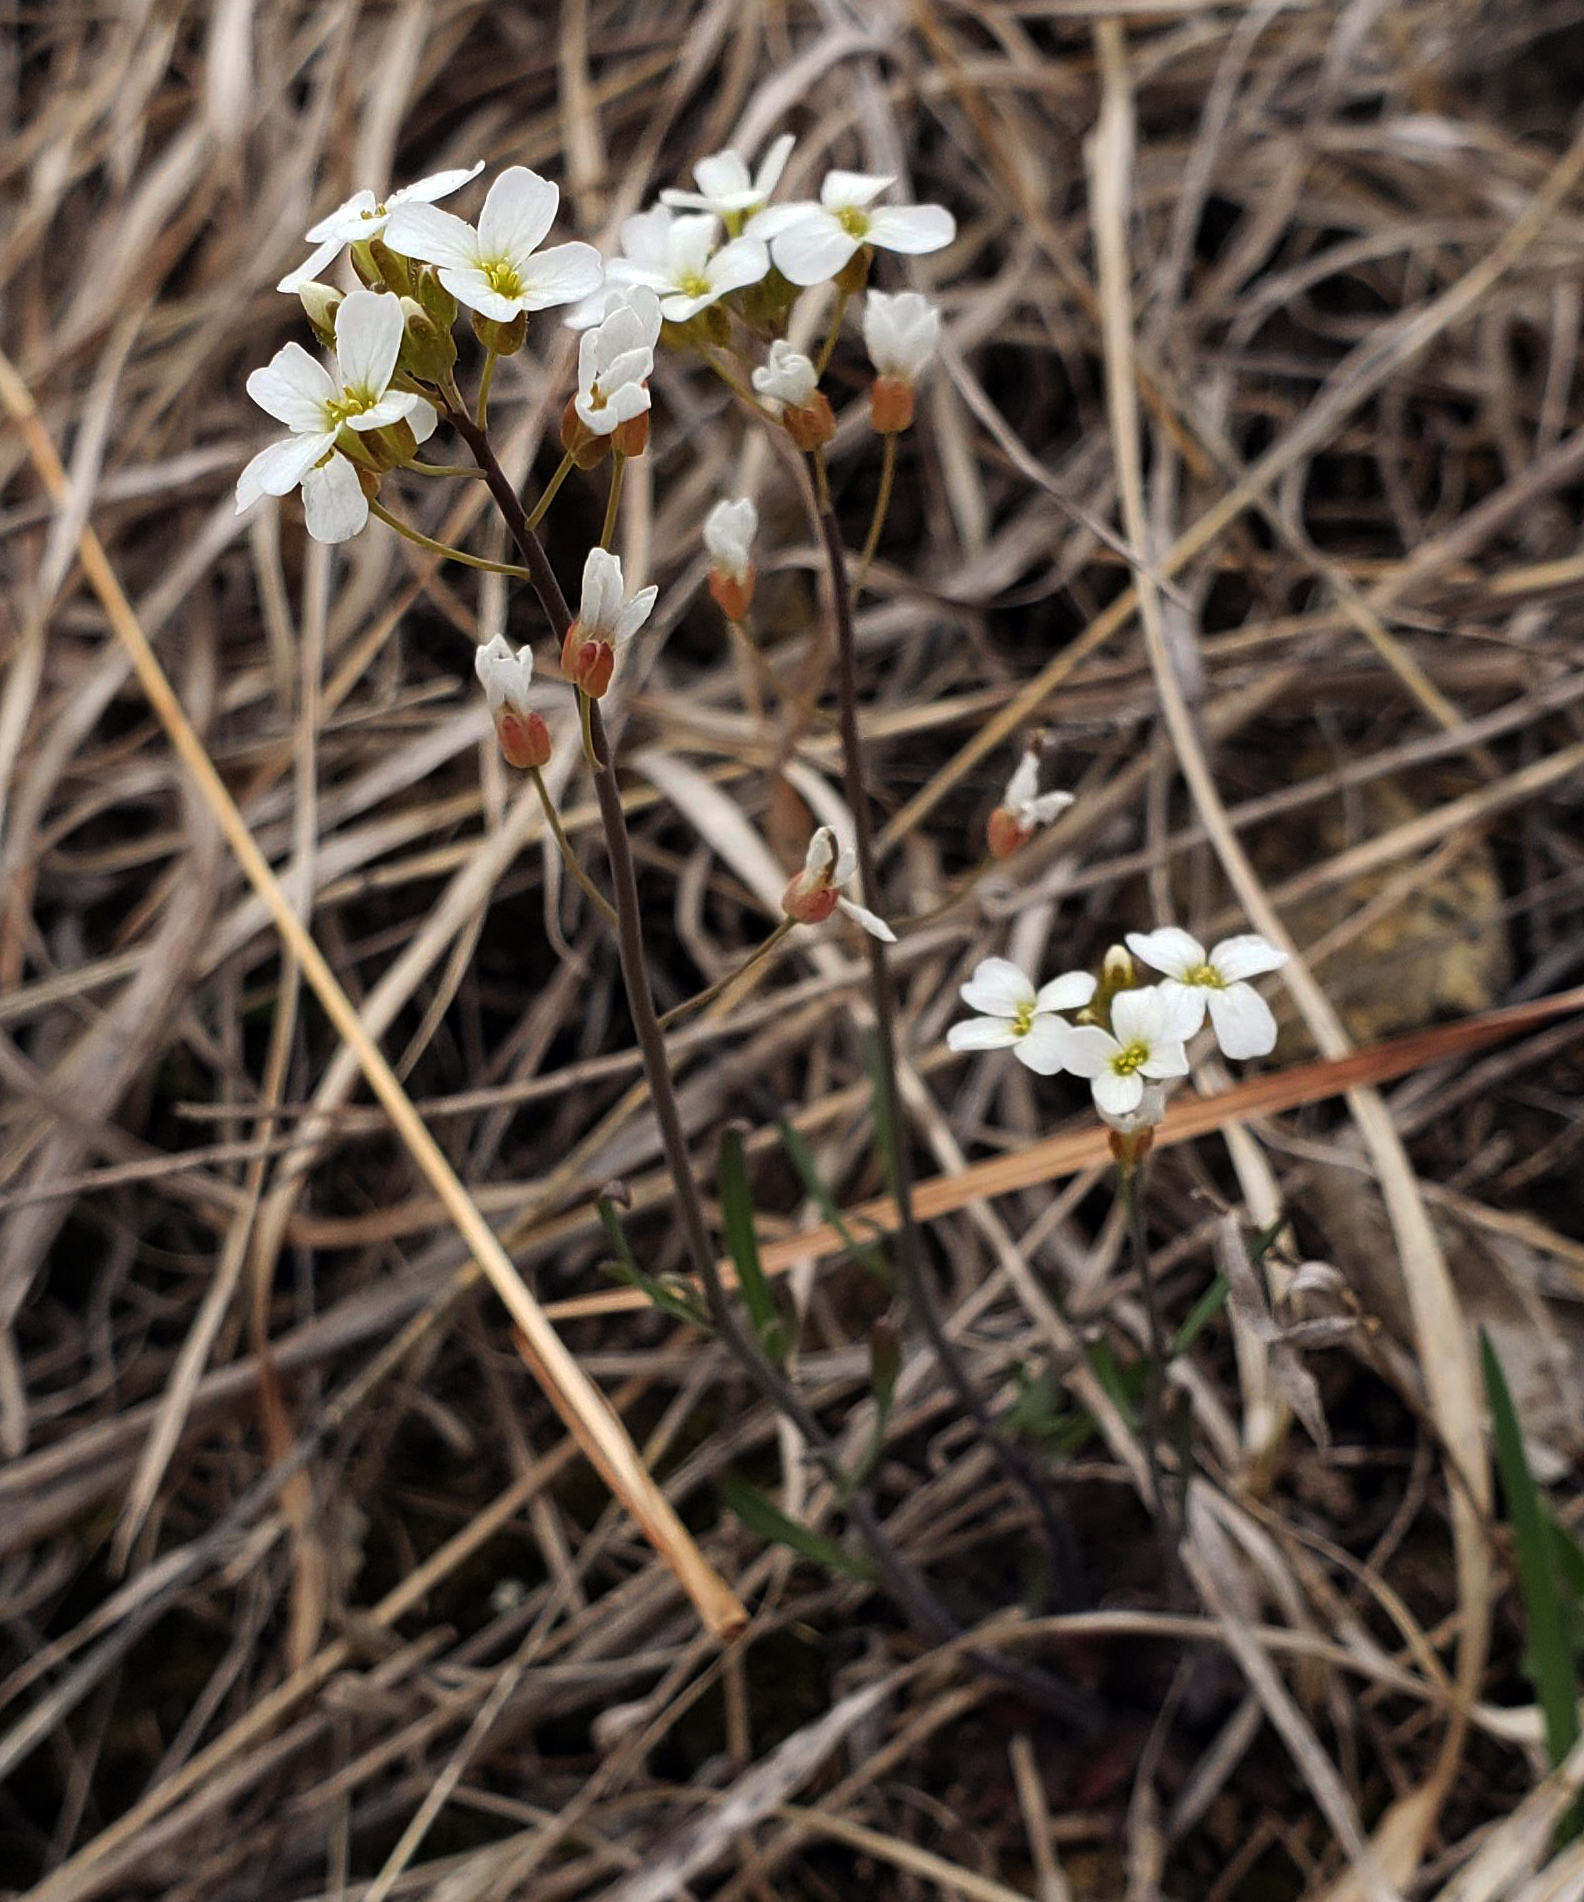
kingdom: Plantae
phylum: Tracheophyta
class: Magnoliopsida
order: Brassicales
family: Brassicaceae
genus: Arabidopsis
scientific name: Arabidopsis lyrata
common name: Lyrate rockcress
